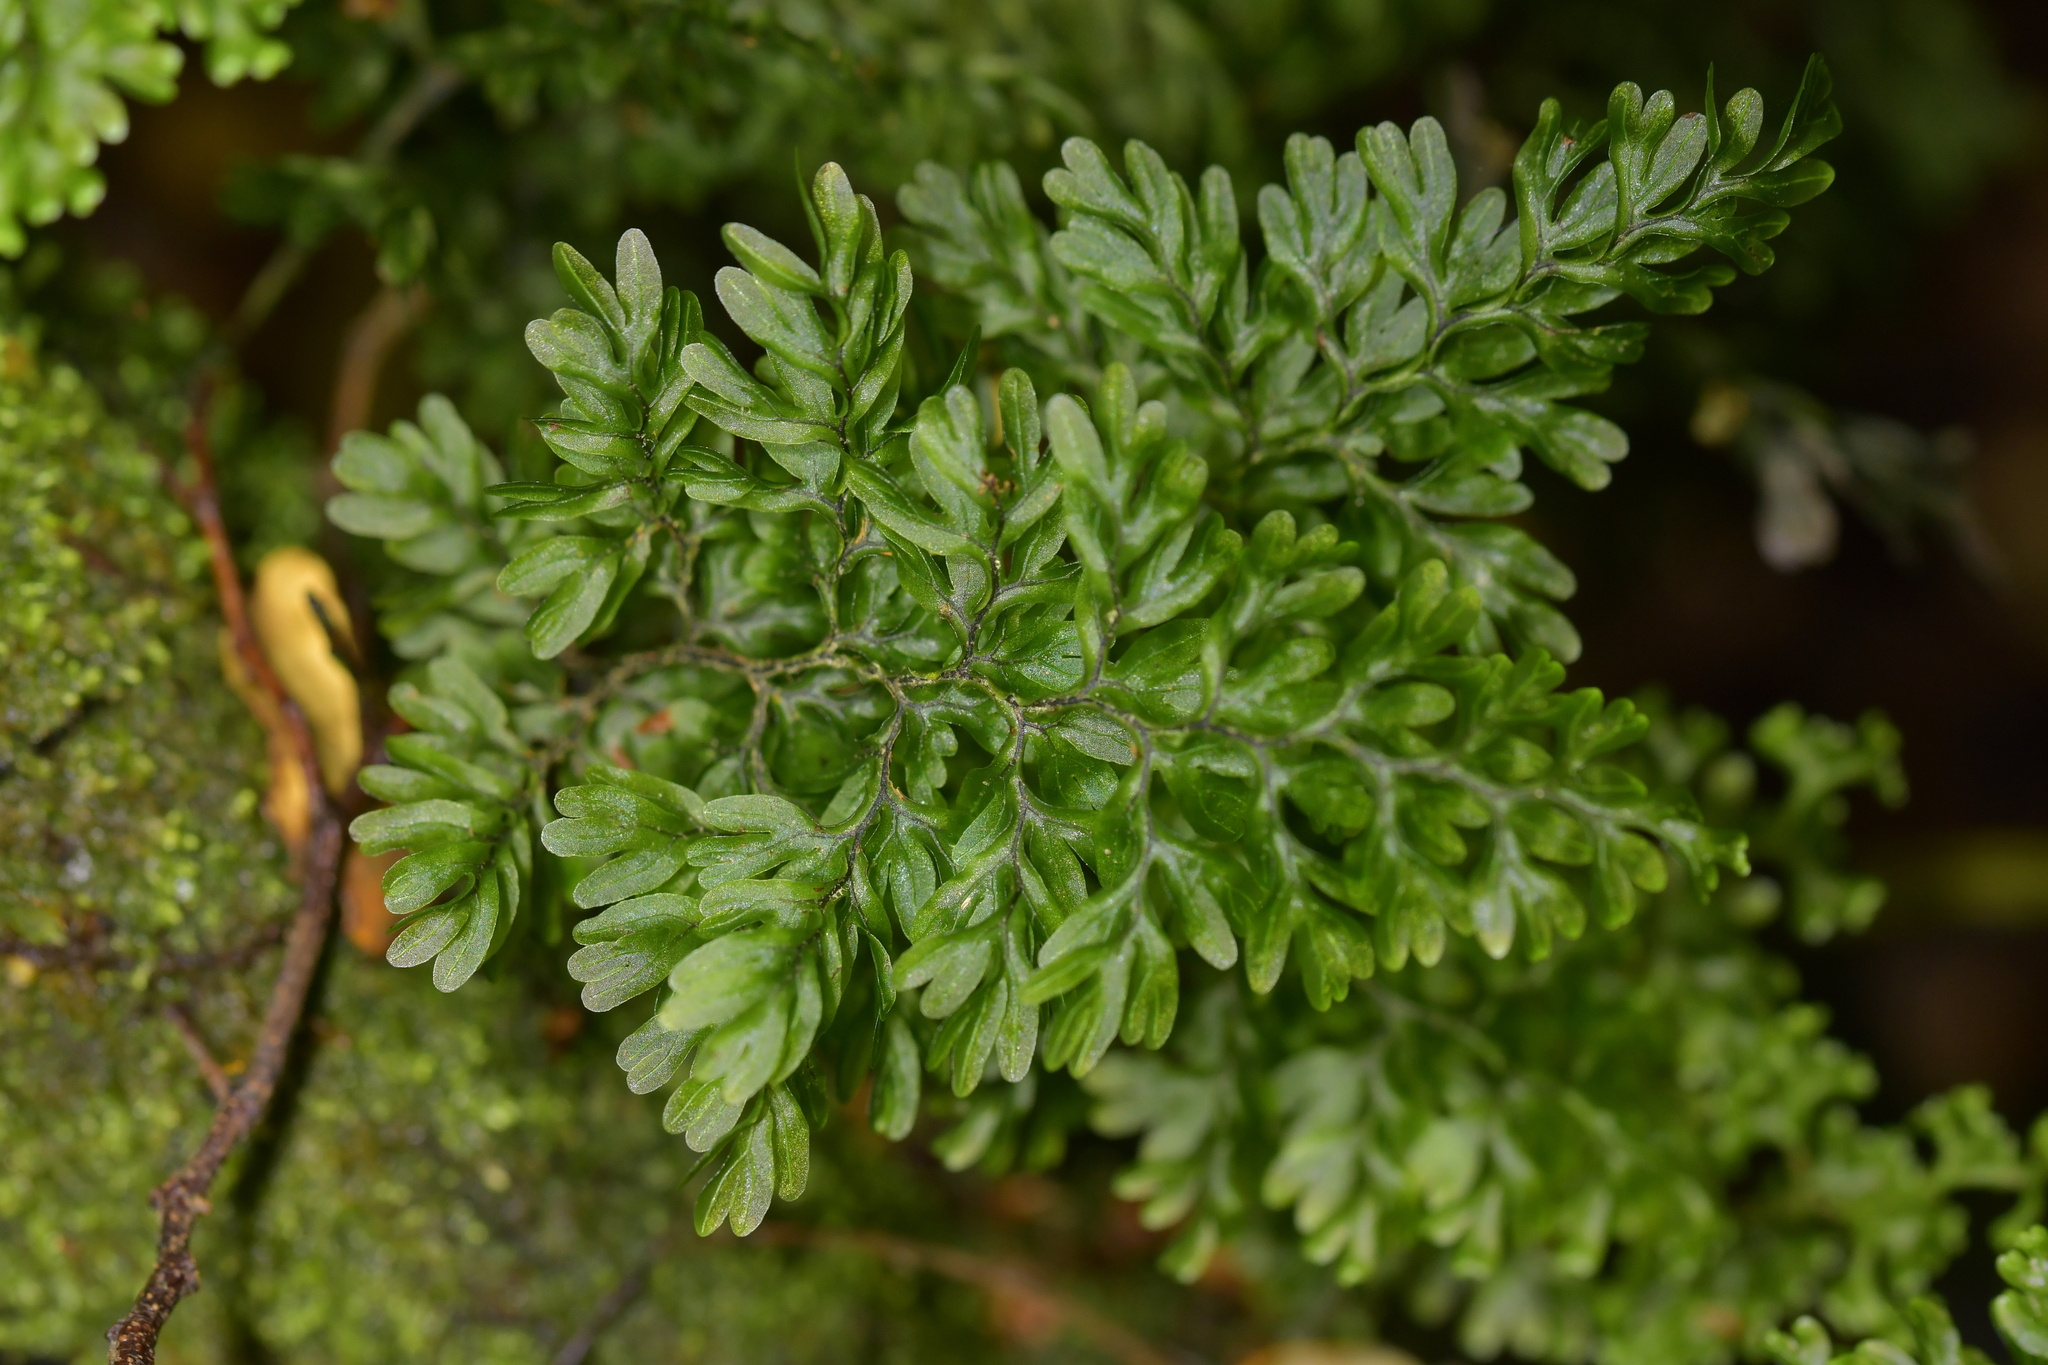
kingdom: Plantae
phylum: Tracheophyta
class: Polypodiopsida
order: Hymenophyllales
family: Hymenophyllaceae
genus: Hymenophyllum
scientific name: Hymenophyllum sanguinolentum
